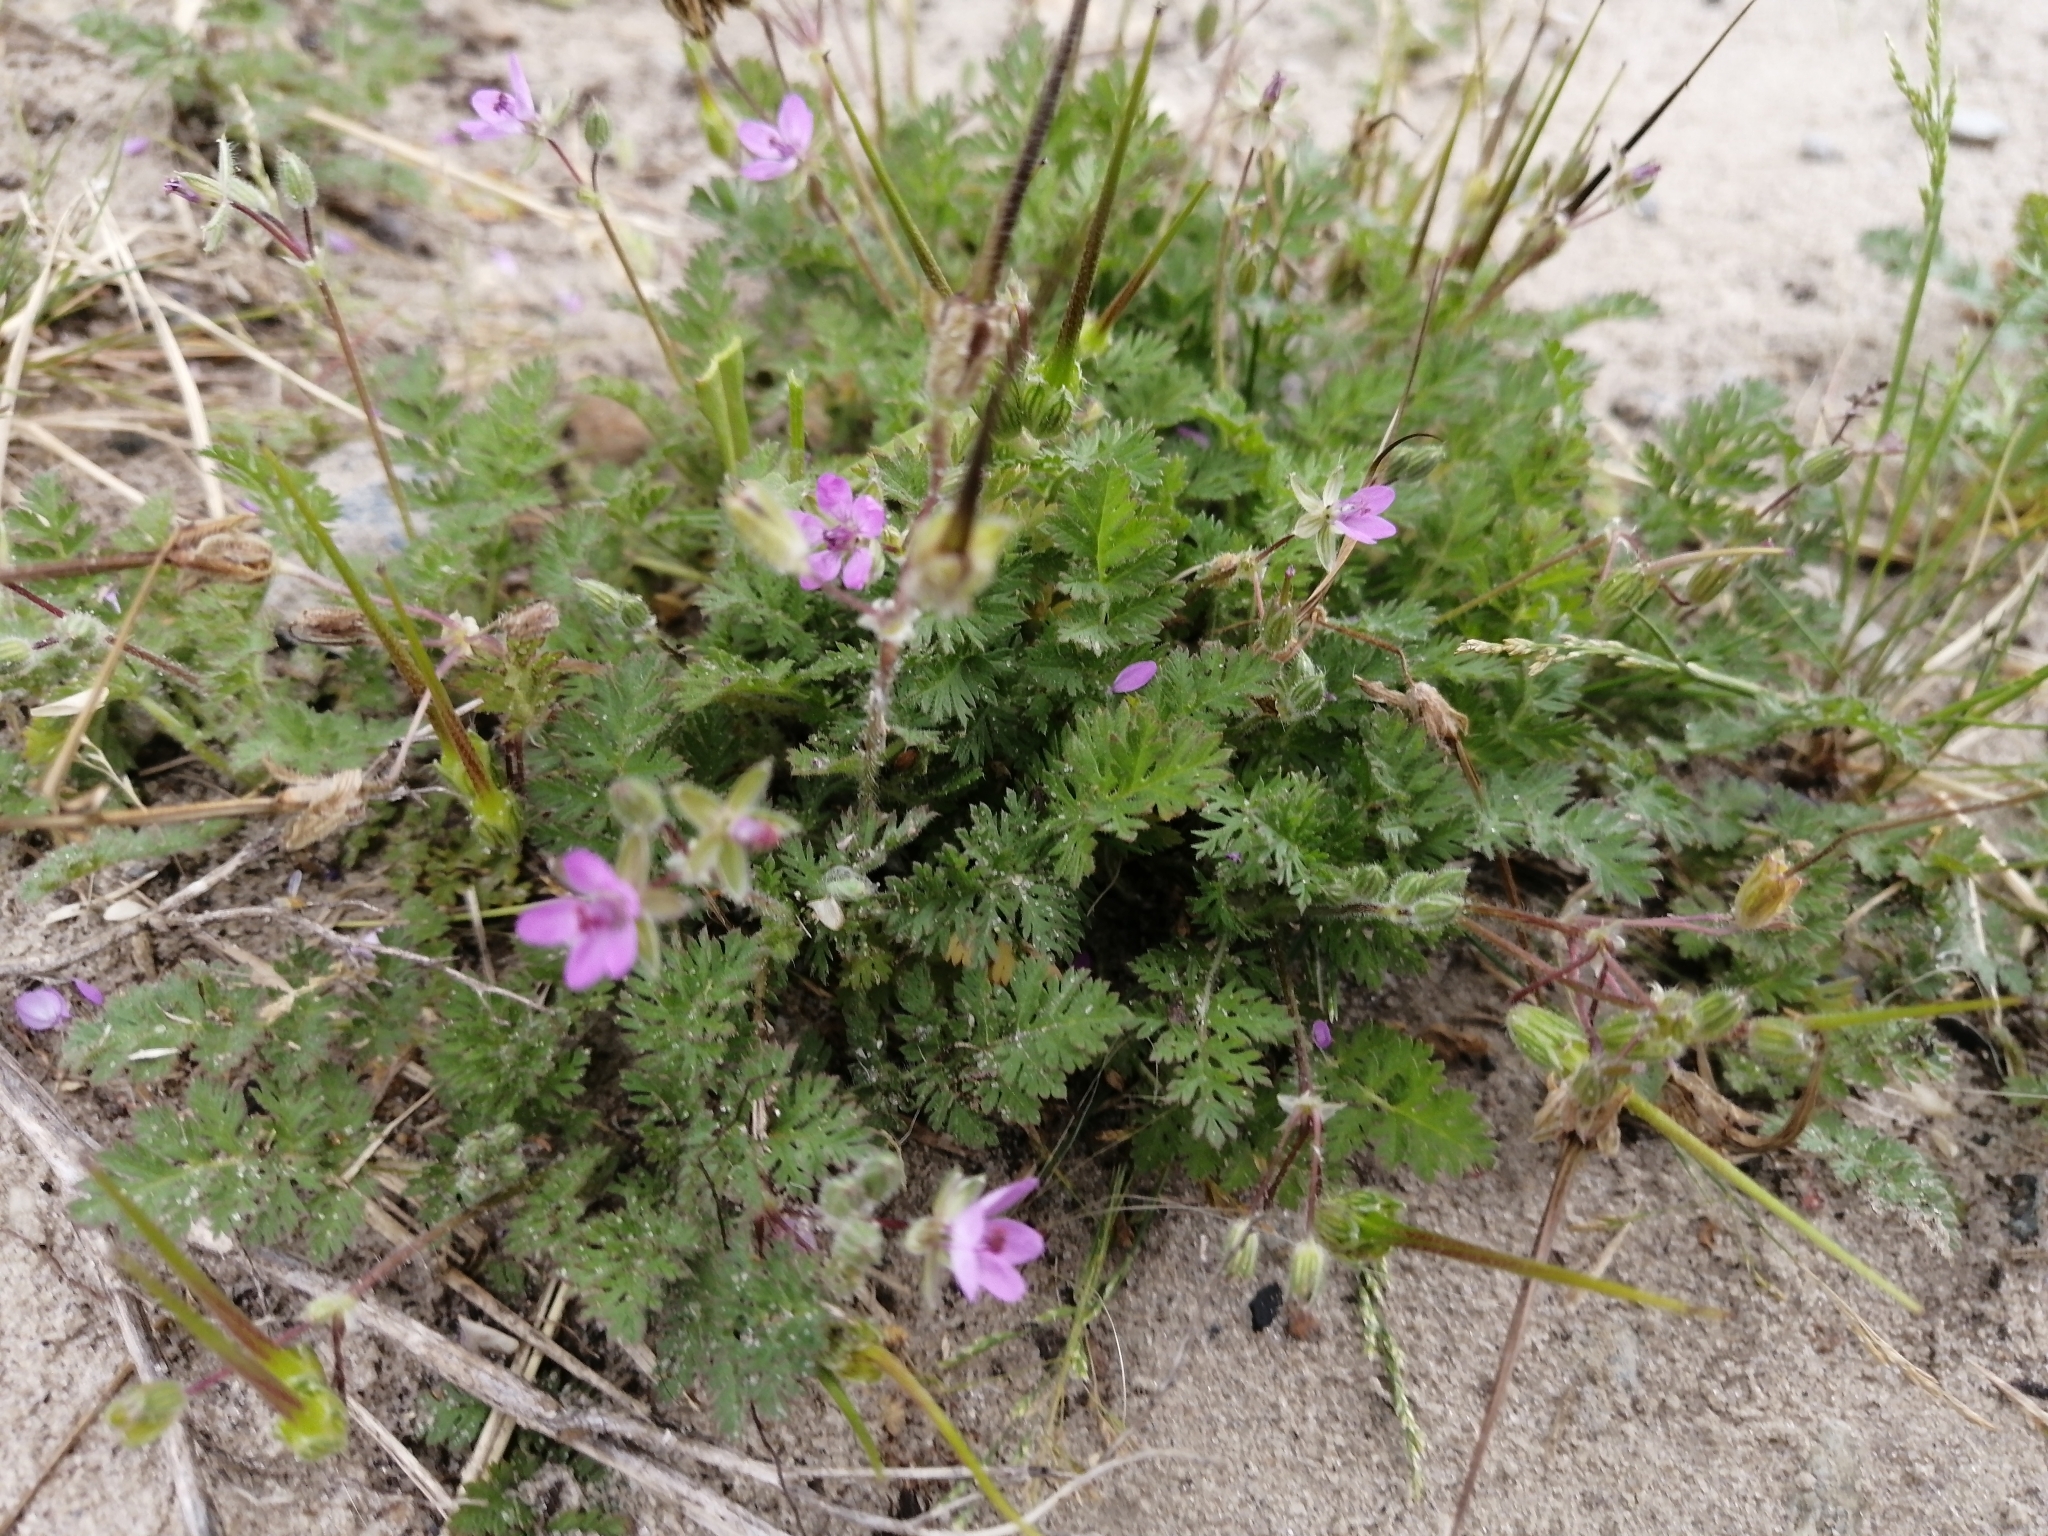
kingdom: Plantae
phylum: Tracheophyta
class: Magnoliopsida
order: Geraniales
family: Geraniaceae
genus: Erodium
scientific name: Erodium cicutarium
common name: Common stork's-bill
